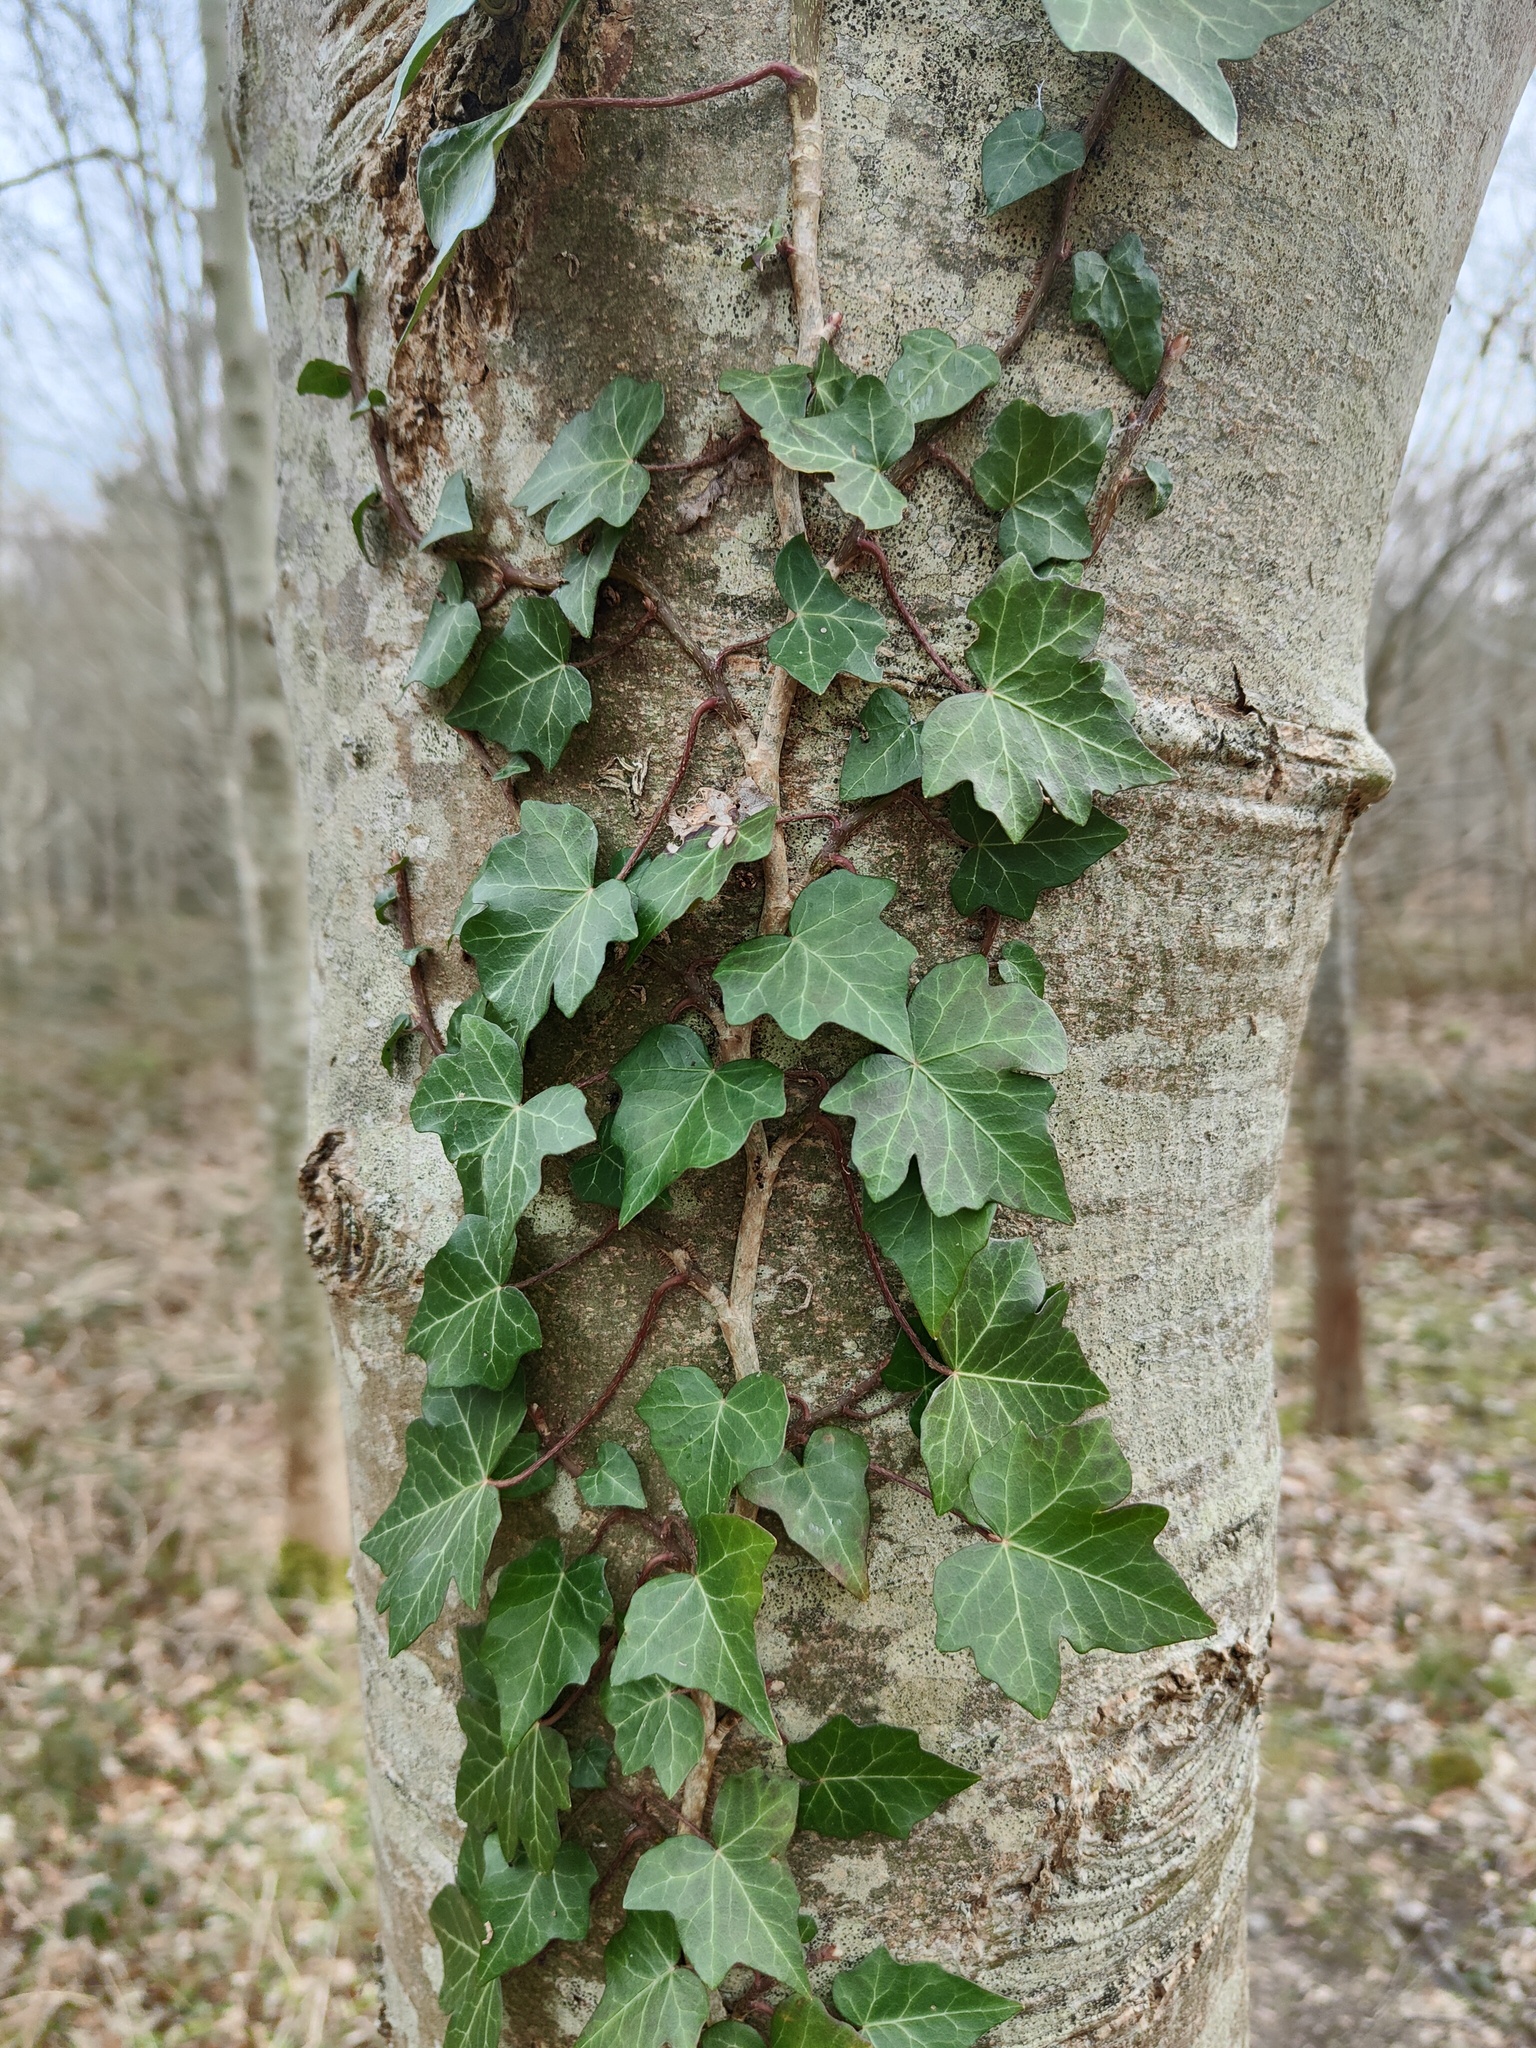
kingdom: Plantae
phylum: Tracheophyta
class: Magnoliopsida
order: Apiales
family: Araliaceae
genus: Hedera
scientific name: Hedera helix
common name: Ivy
